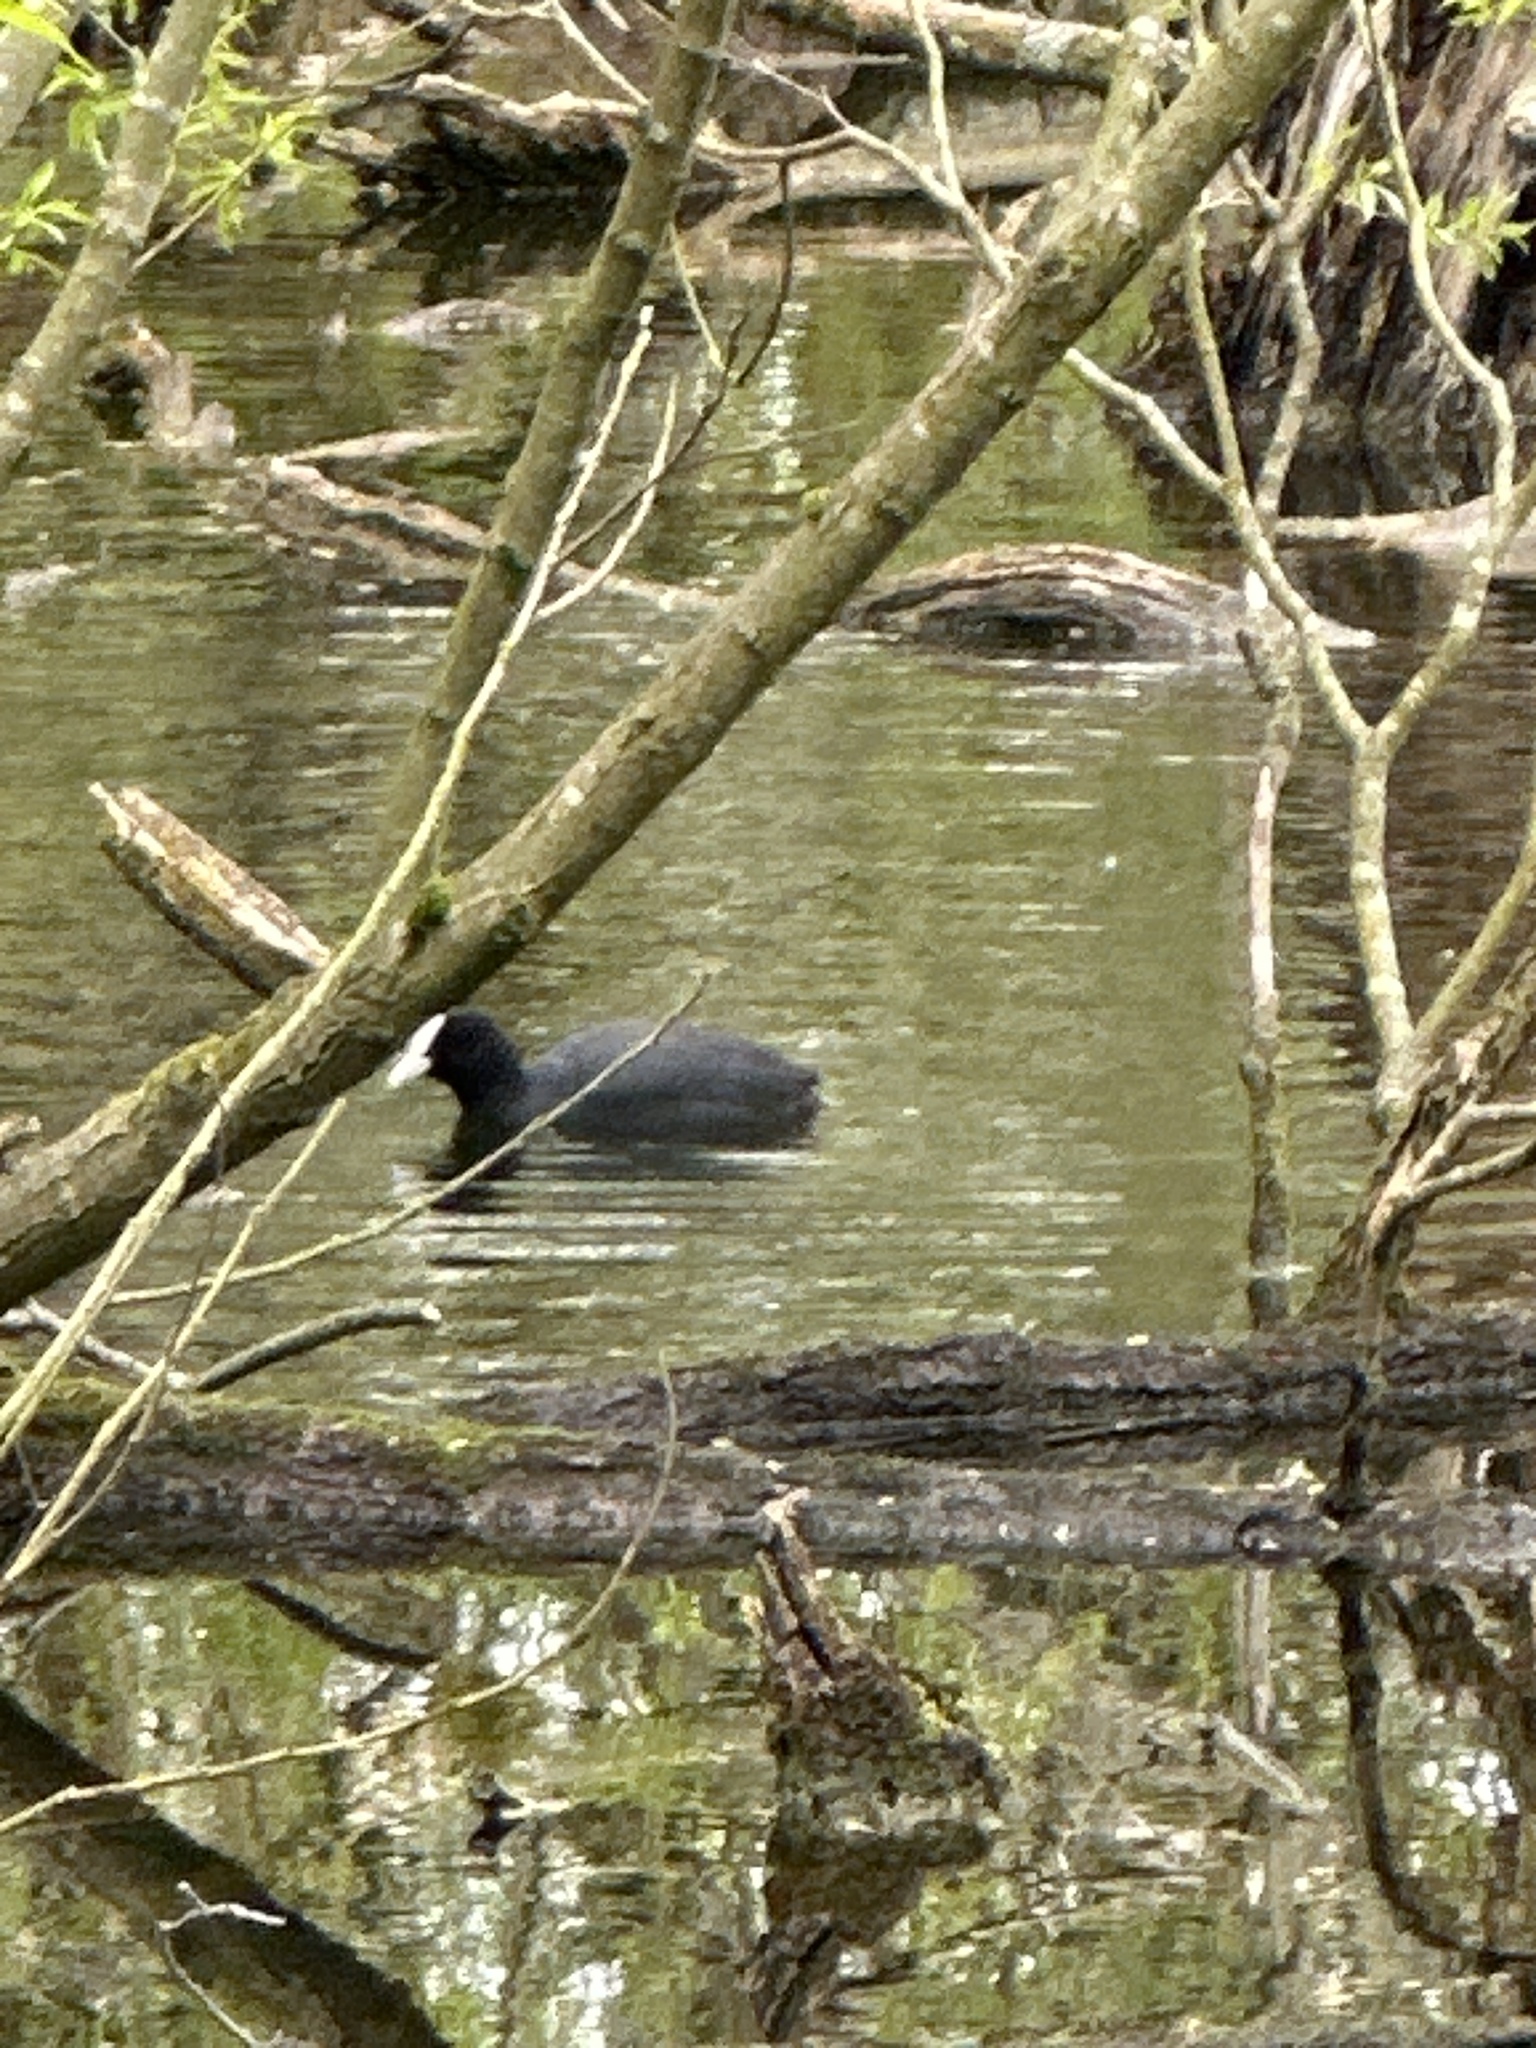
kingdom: Animalia
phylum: Chordata
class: Aves
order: Gruiformes
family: Rallidae
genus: Fulica
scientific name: Fulica atra
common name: Eurasian coot
